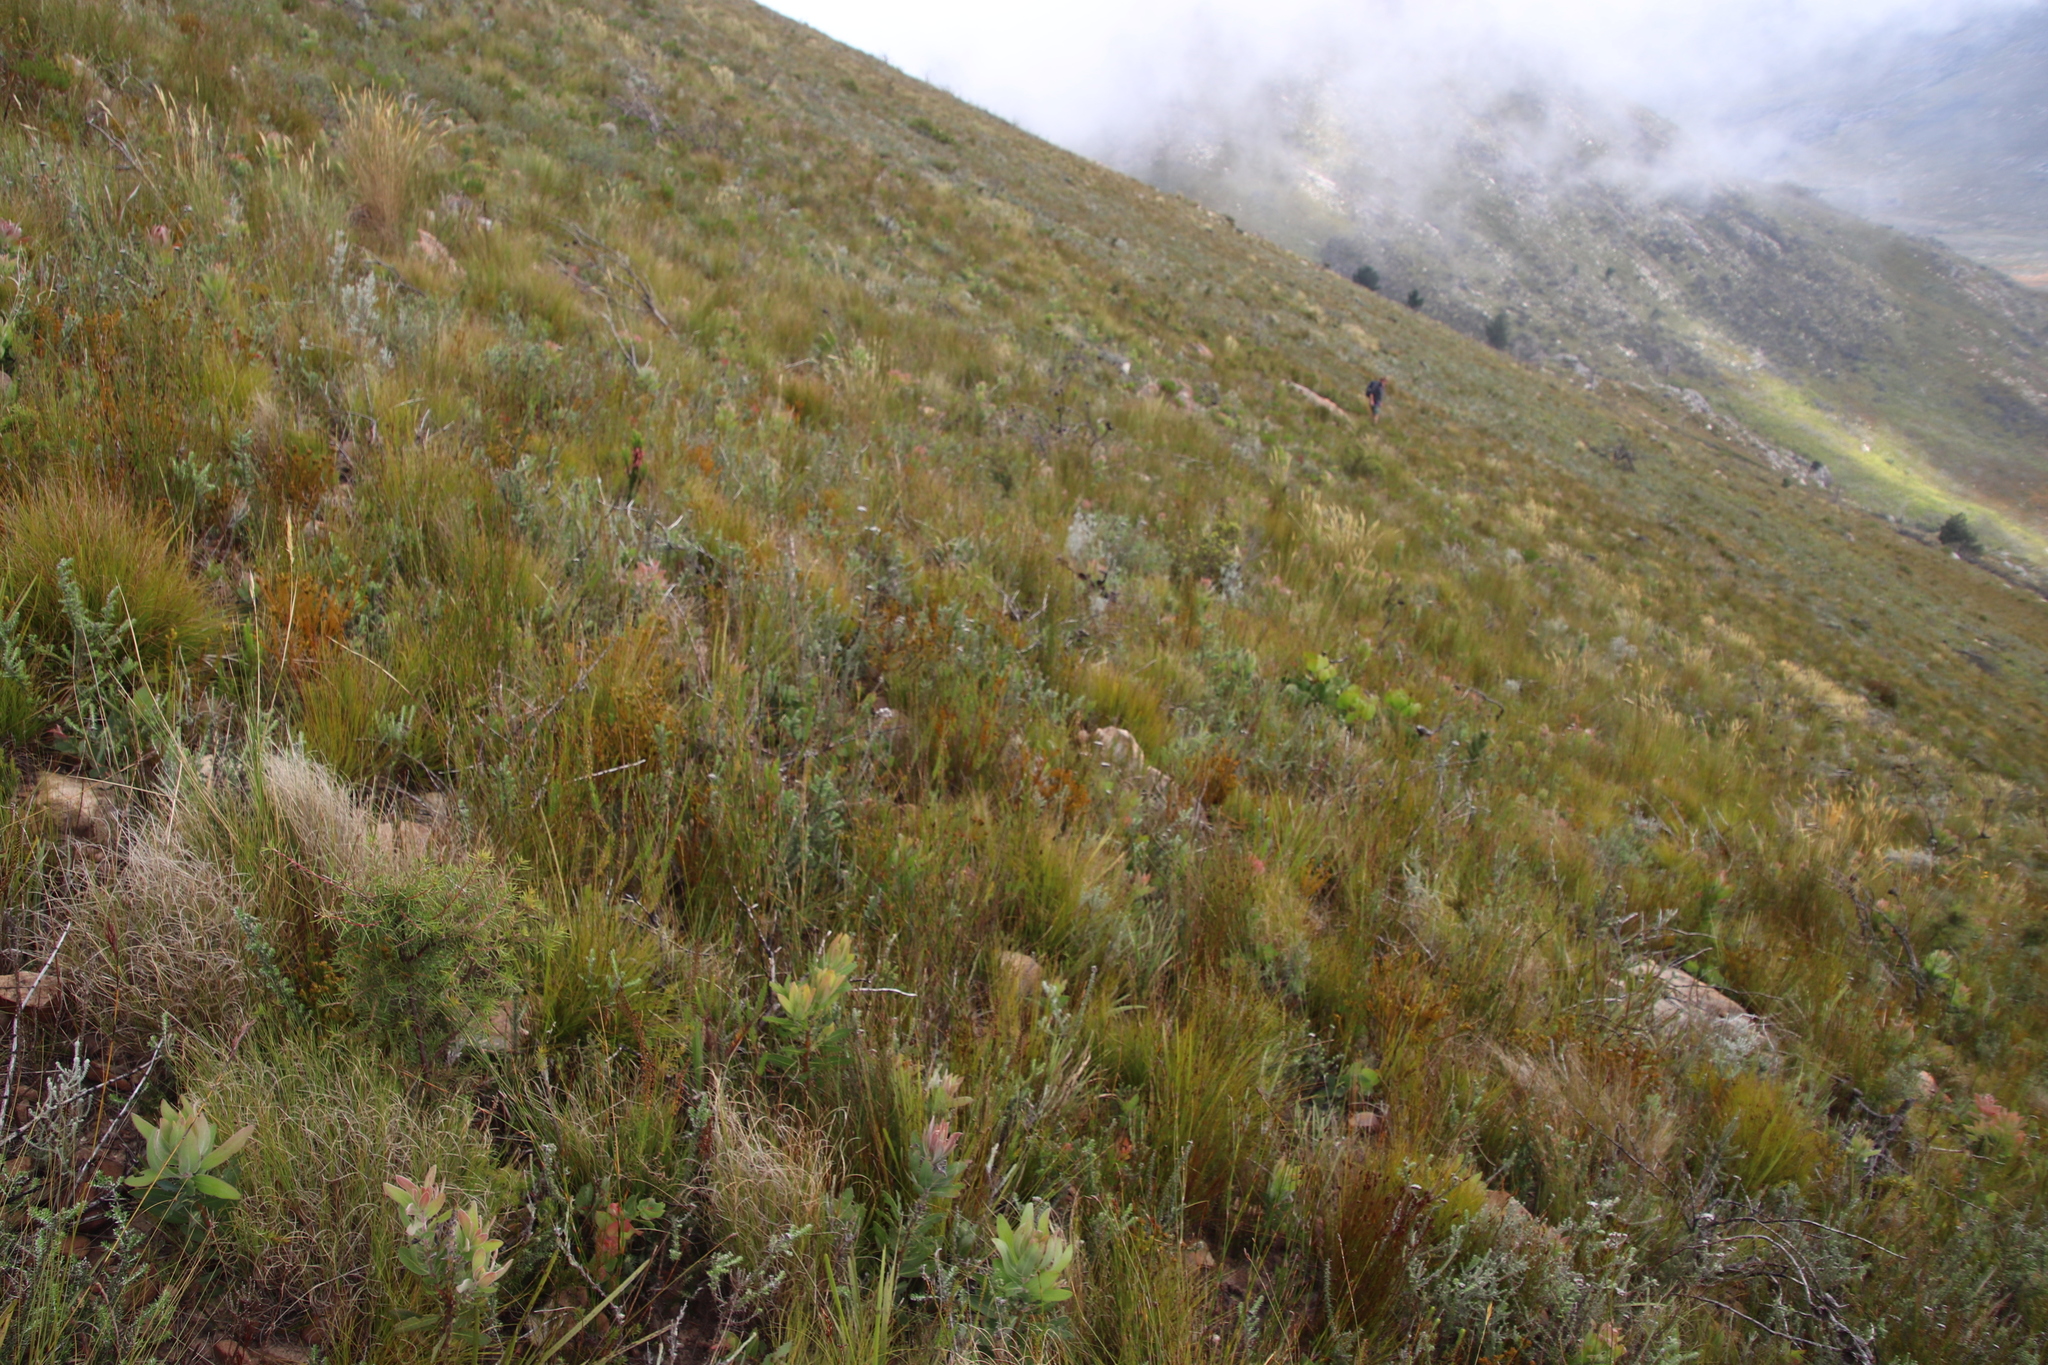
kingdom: Plantae
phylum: Tracheophyta
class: Magnoliopsida
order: Proteales
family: Proteaceae
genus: Hakea
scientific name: Hakea sericea
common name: Needle bush
